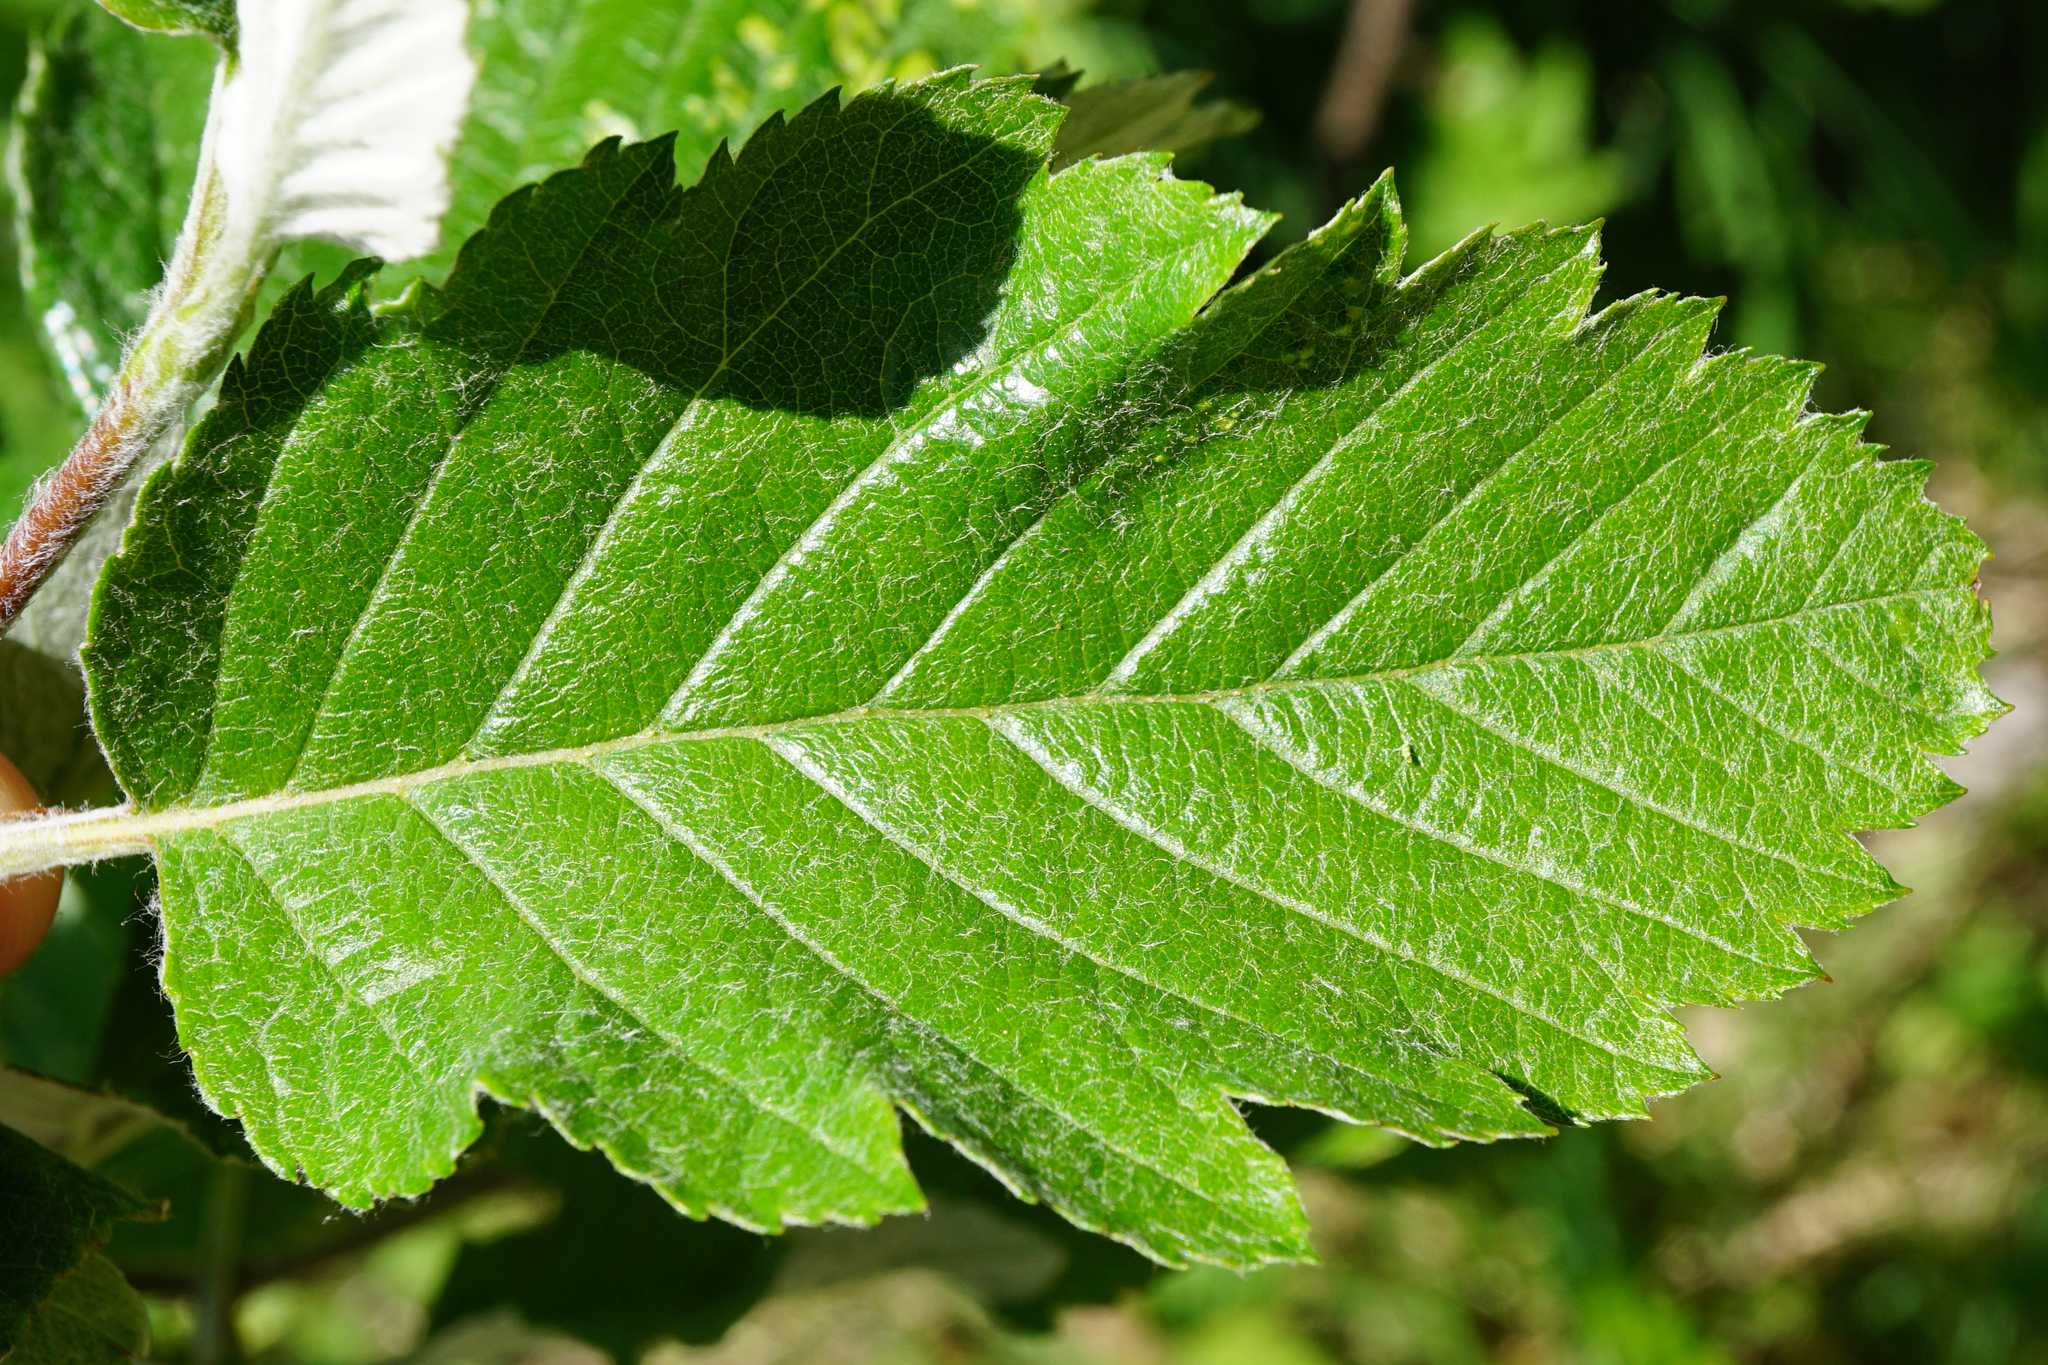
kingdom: Plantae
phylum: Tracheophyta
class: Magnoliopsida
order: Rosales
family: Rosaceae
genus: Hedlundia
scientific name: Hedlundia austriaca
